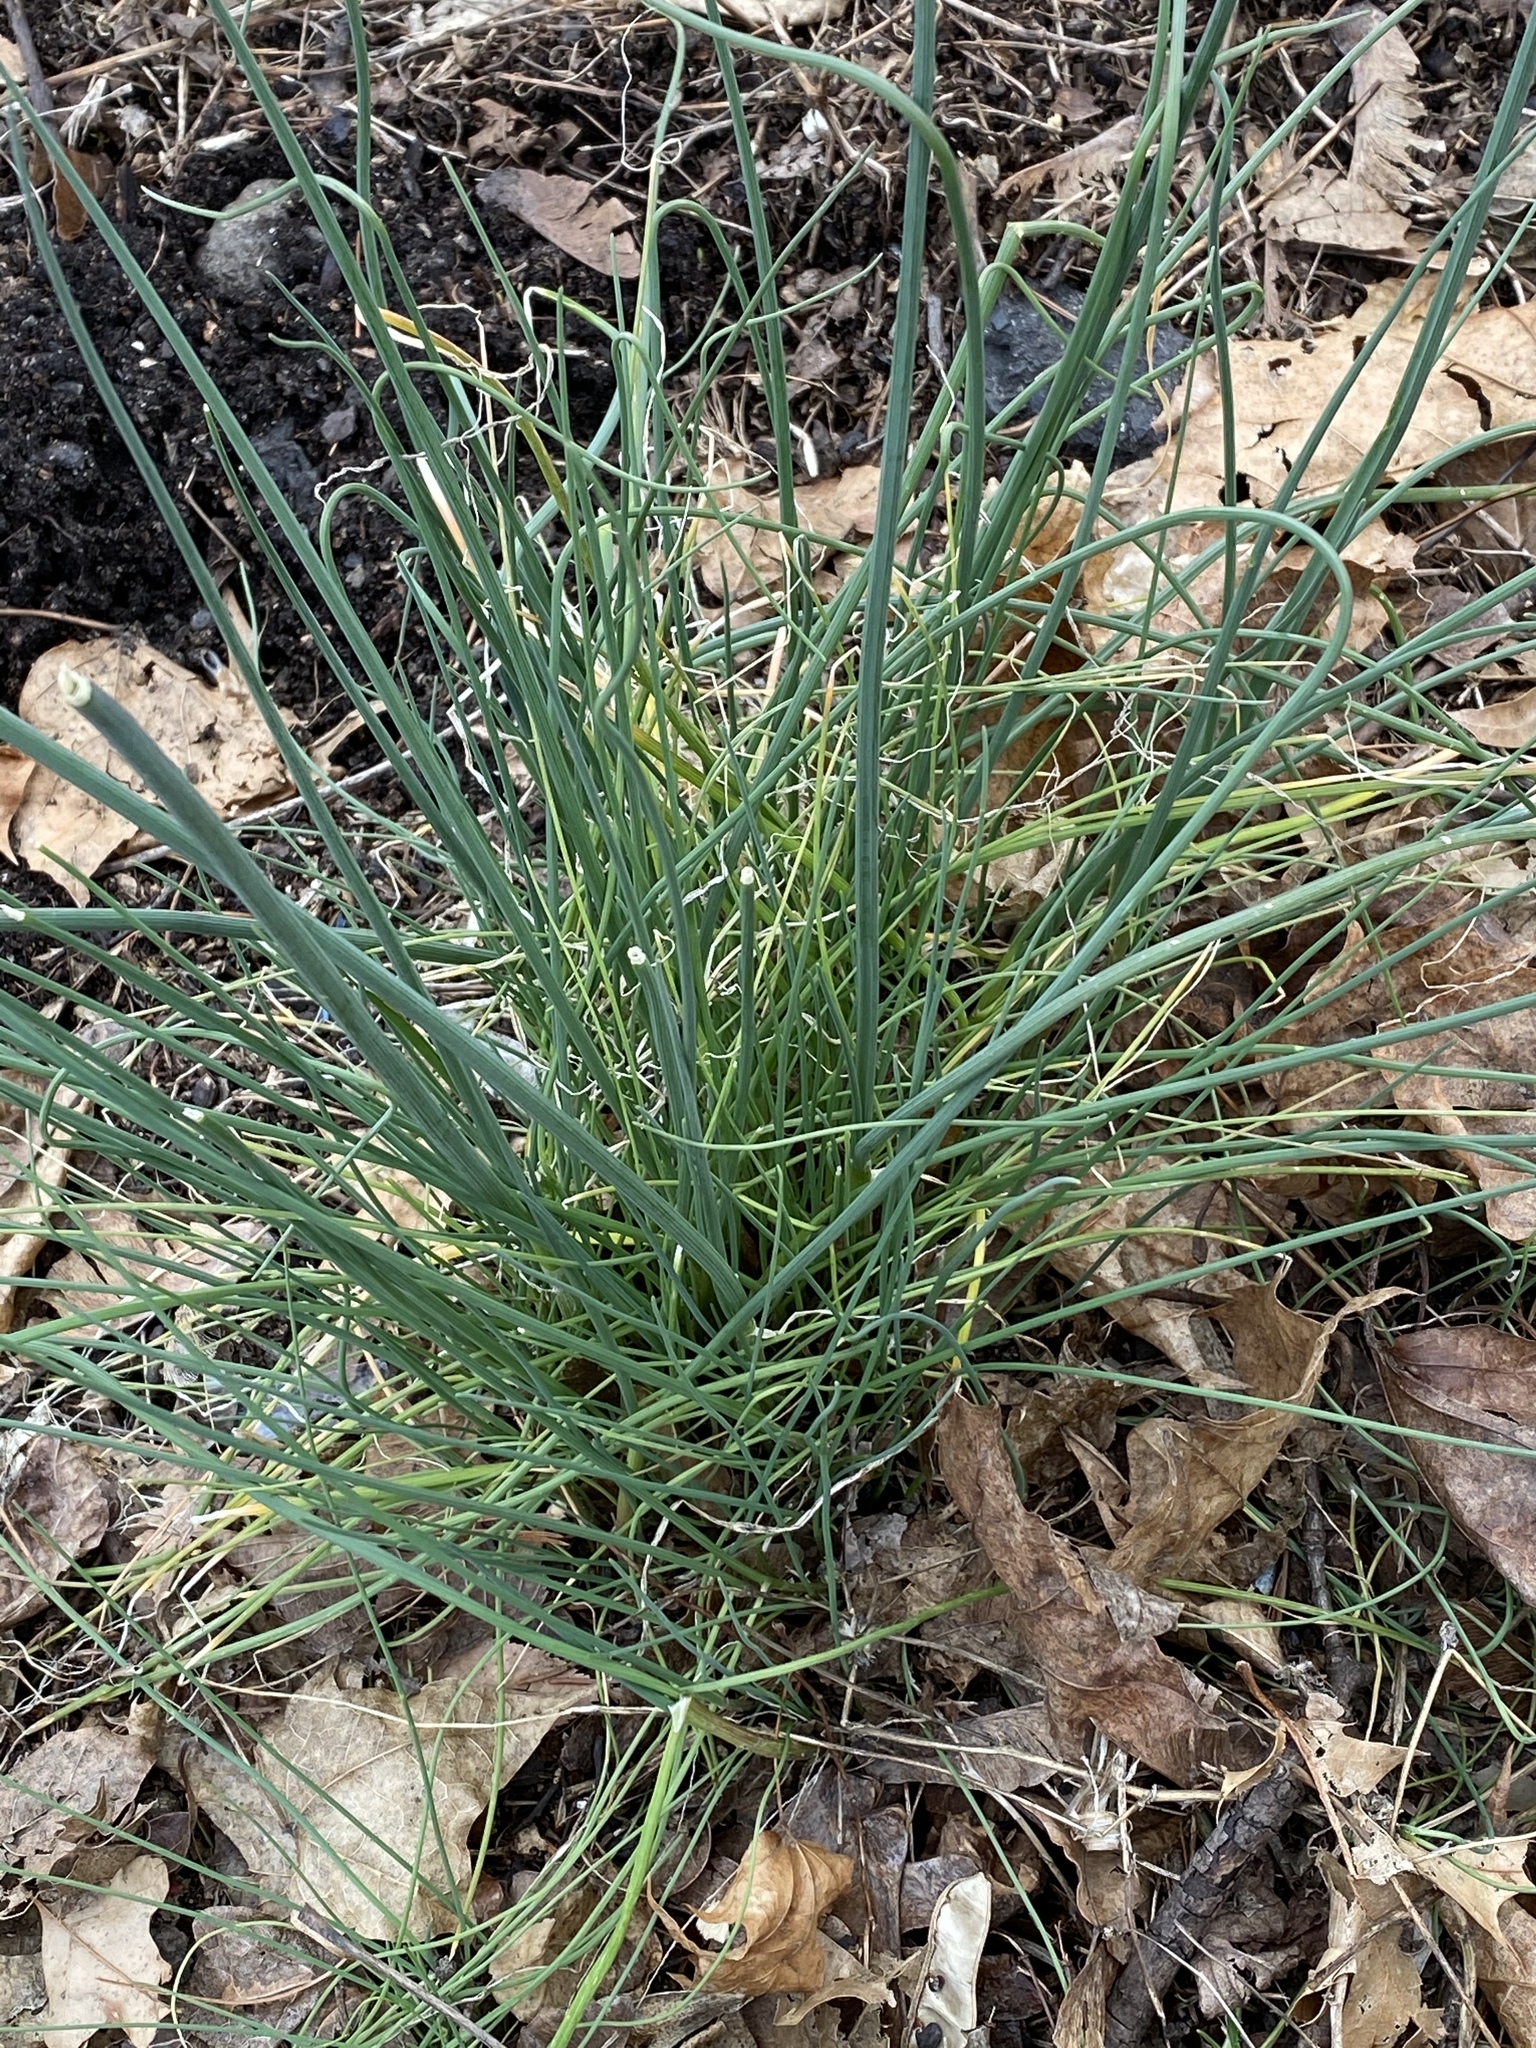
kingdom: Plantae
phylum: Tracheophyta
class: Liliopsida
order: Asparagales
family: Amaryllidaceae
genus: Allium
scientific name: Allium vineale
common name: Crow garlic
